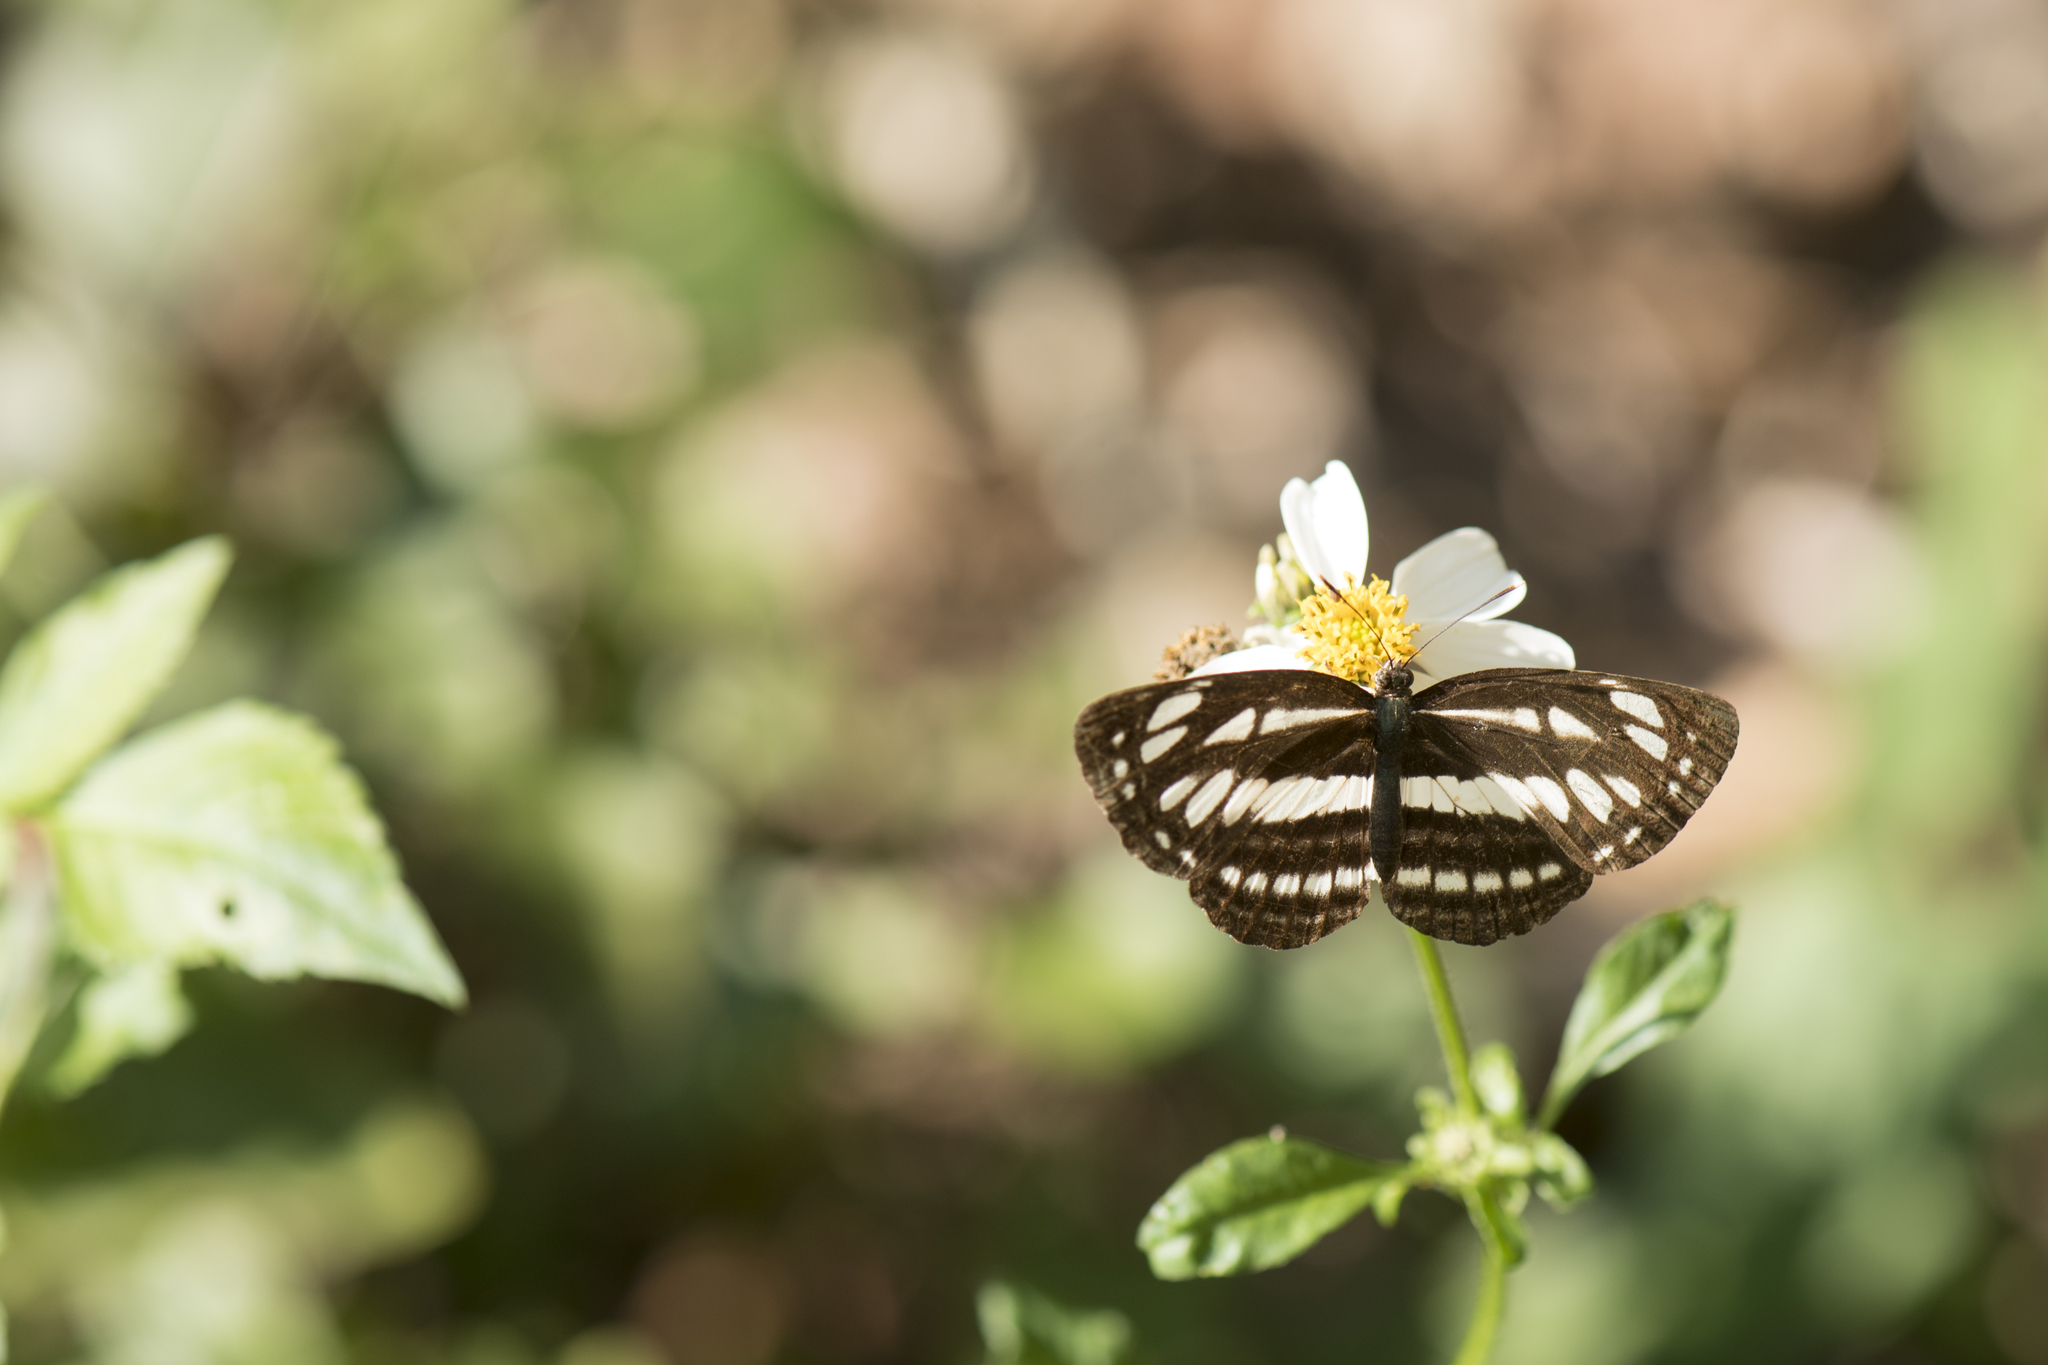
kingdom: Animalia
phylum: Arthropoda
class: Insecta
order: Lepidoptera
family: Nymphalidae
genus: Neptis
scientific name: Neptis hylas
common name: Common sailer
